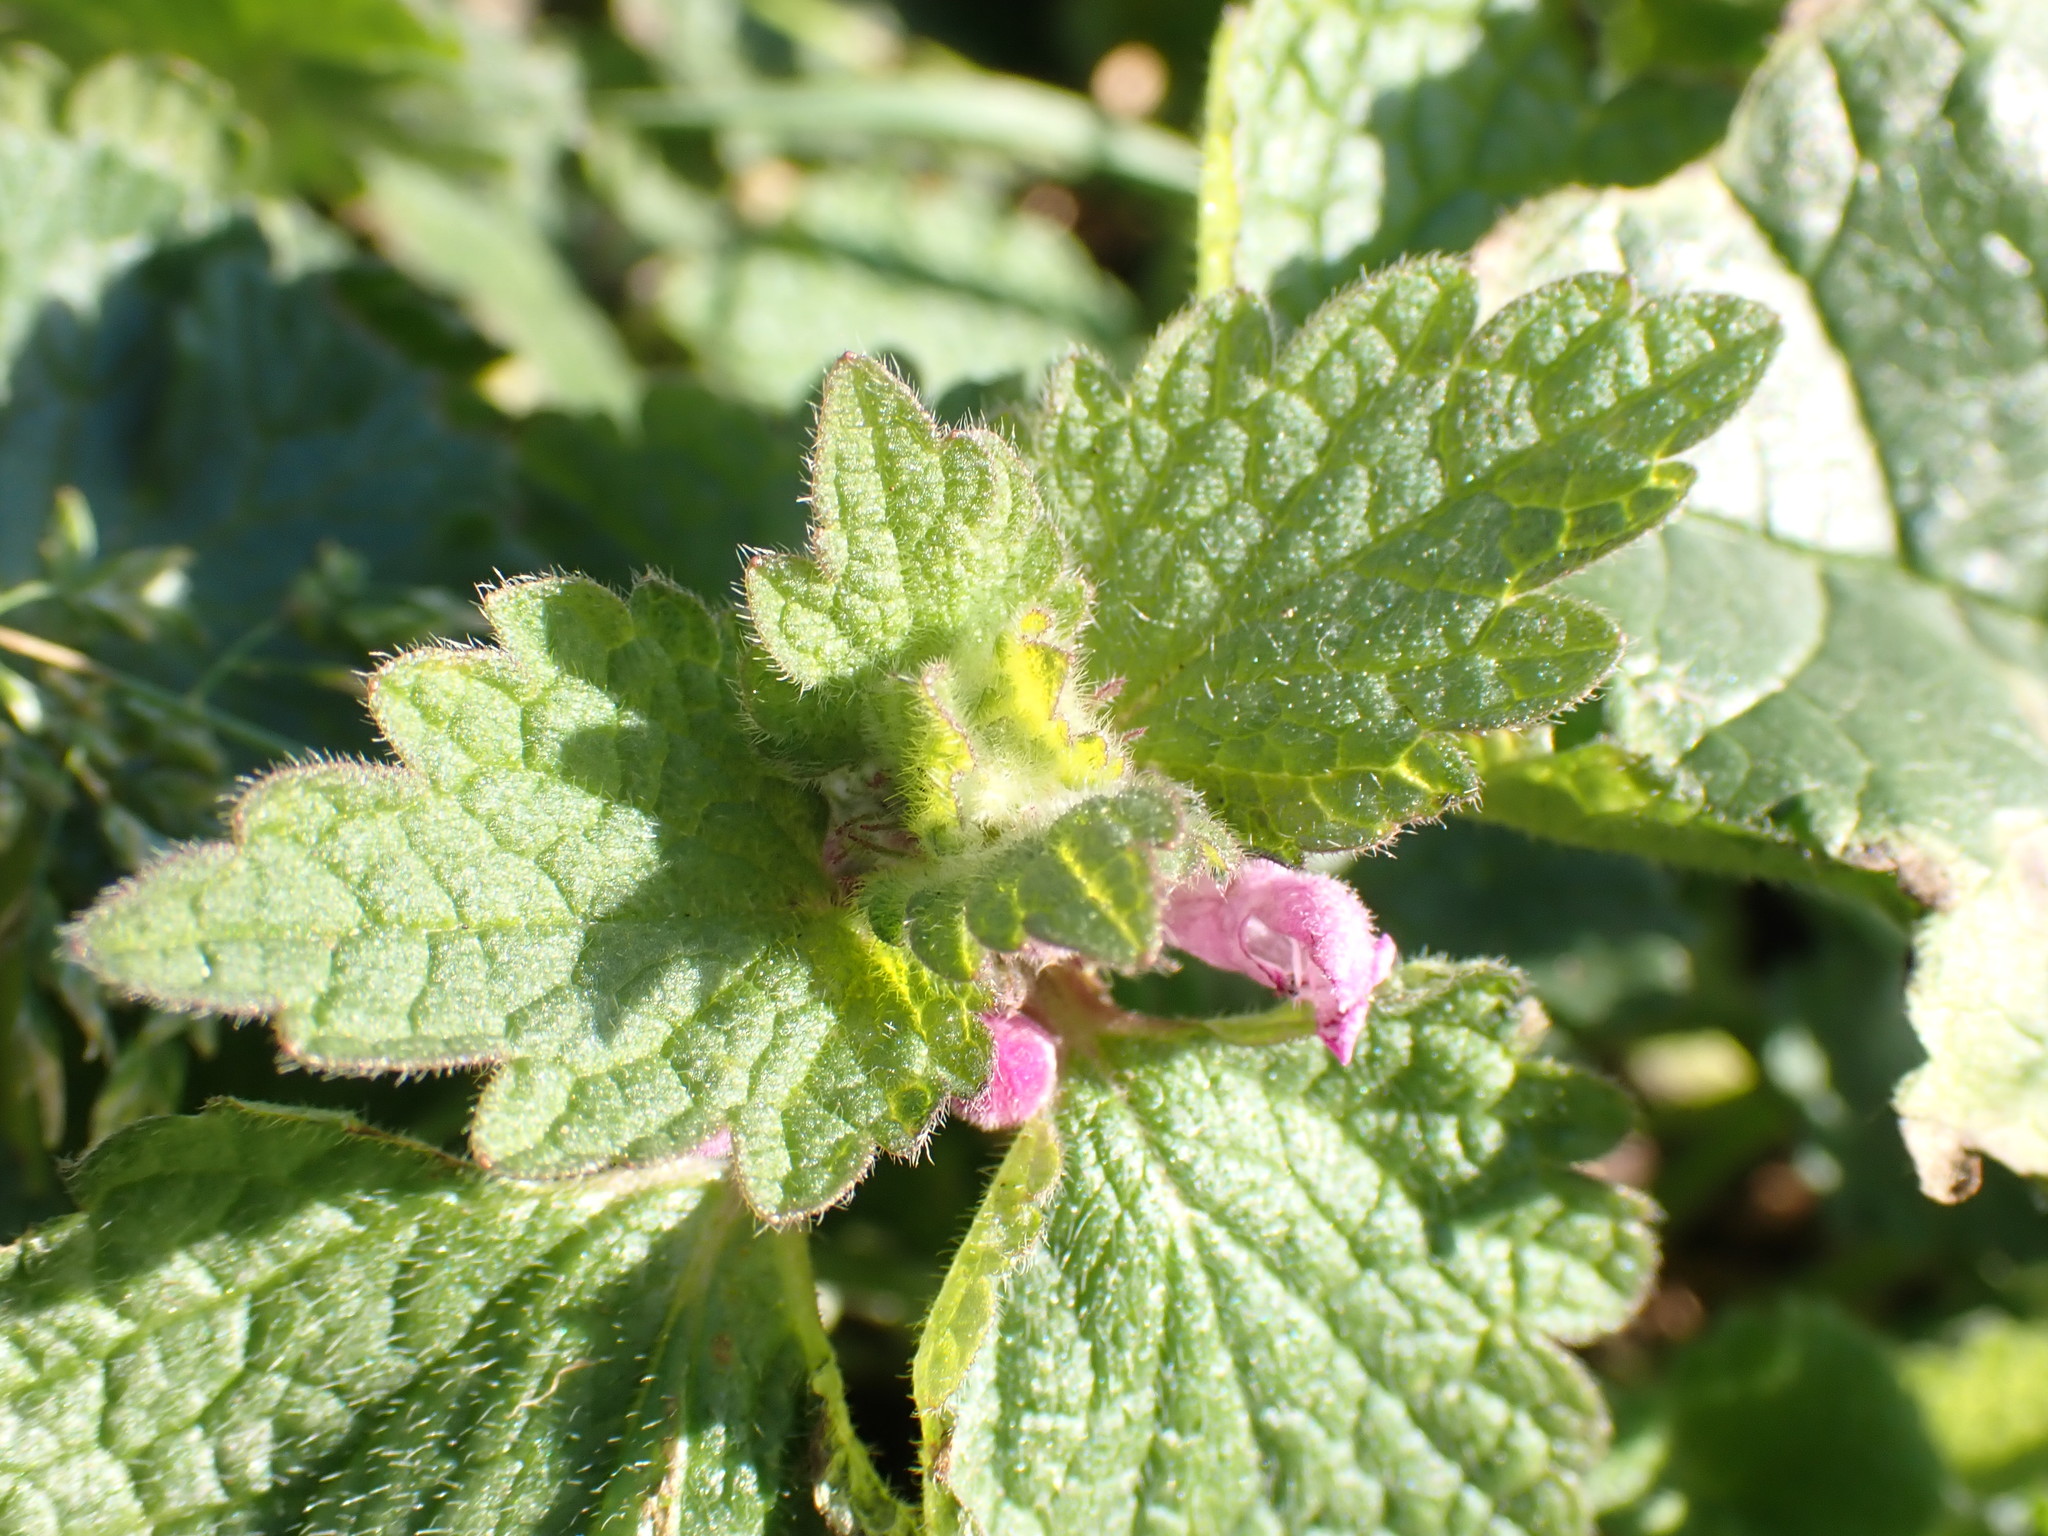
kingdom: Plantae
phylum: Tracheophyta
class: Magnoliopsida
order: Lamiales
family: Lamiaceae
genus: Lamium
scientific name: Lamium purpureum
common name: Red dead-nettle
